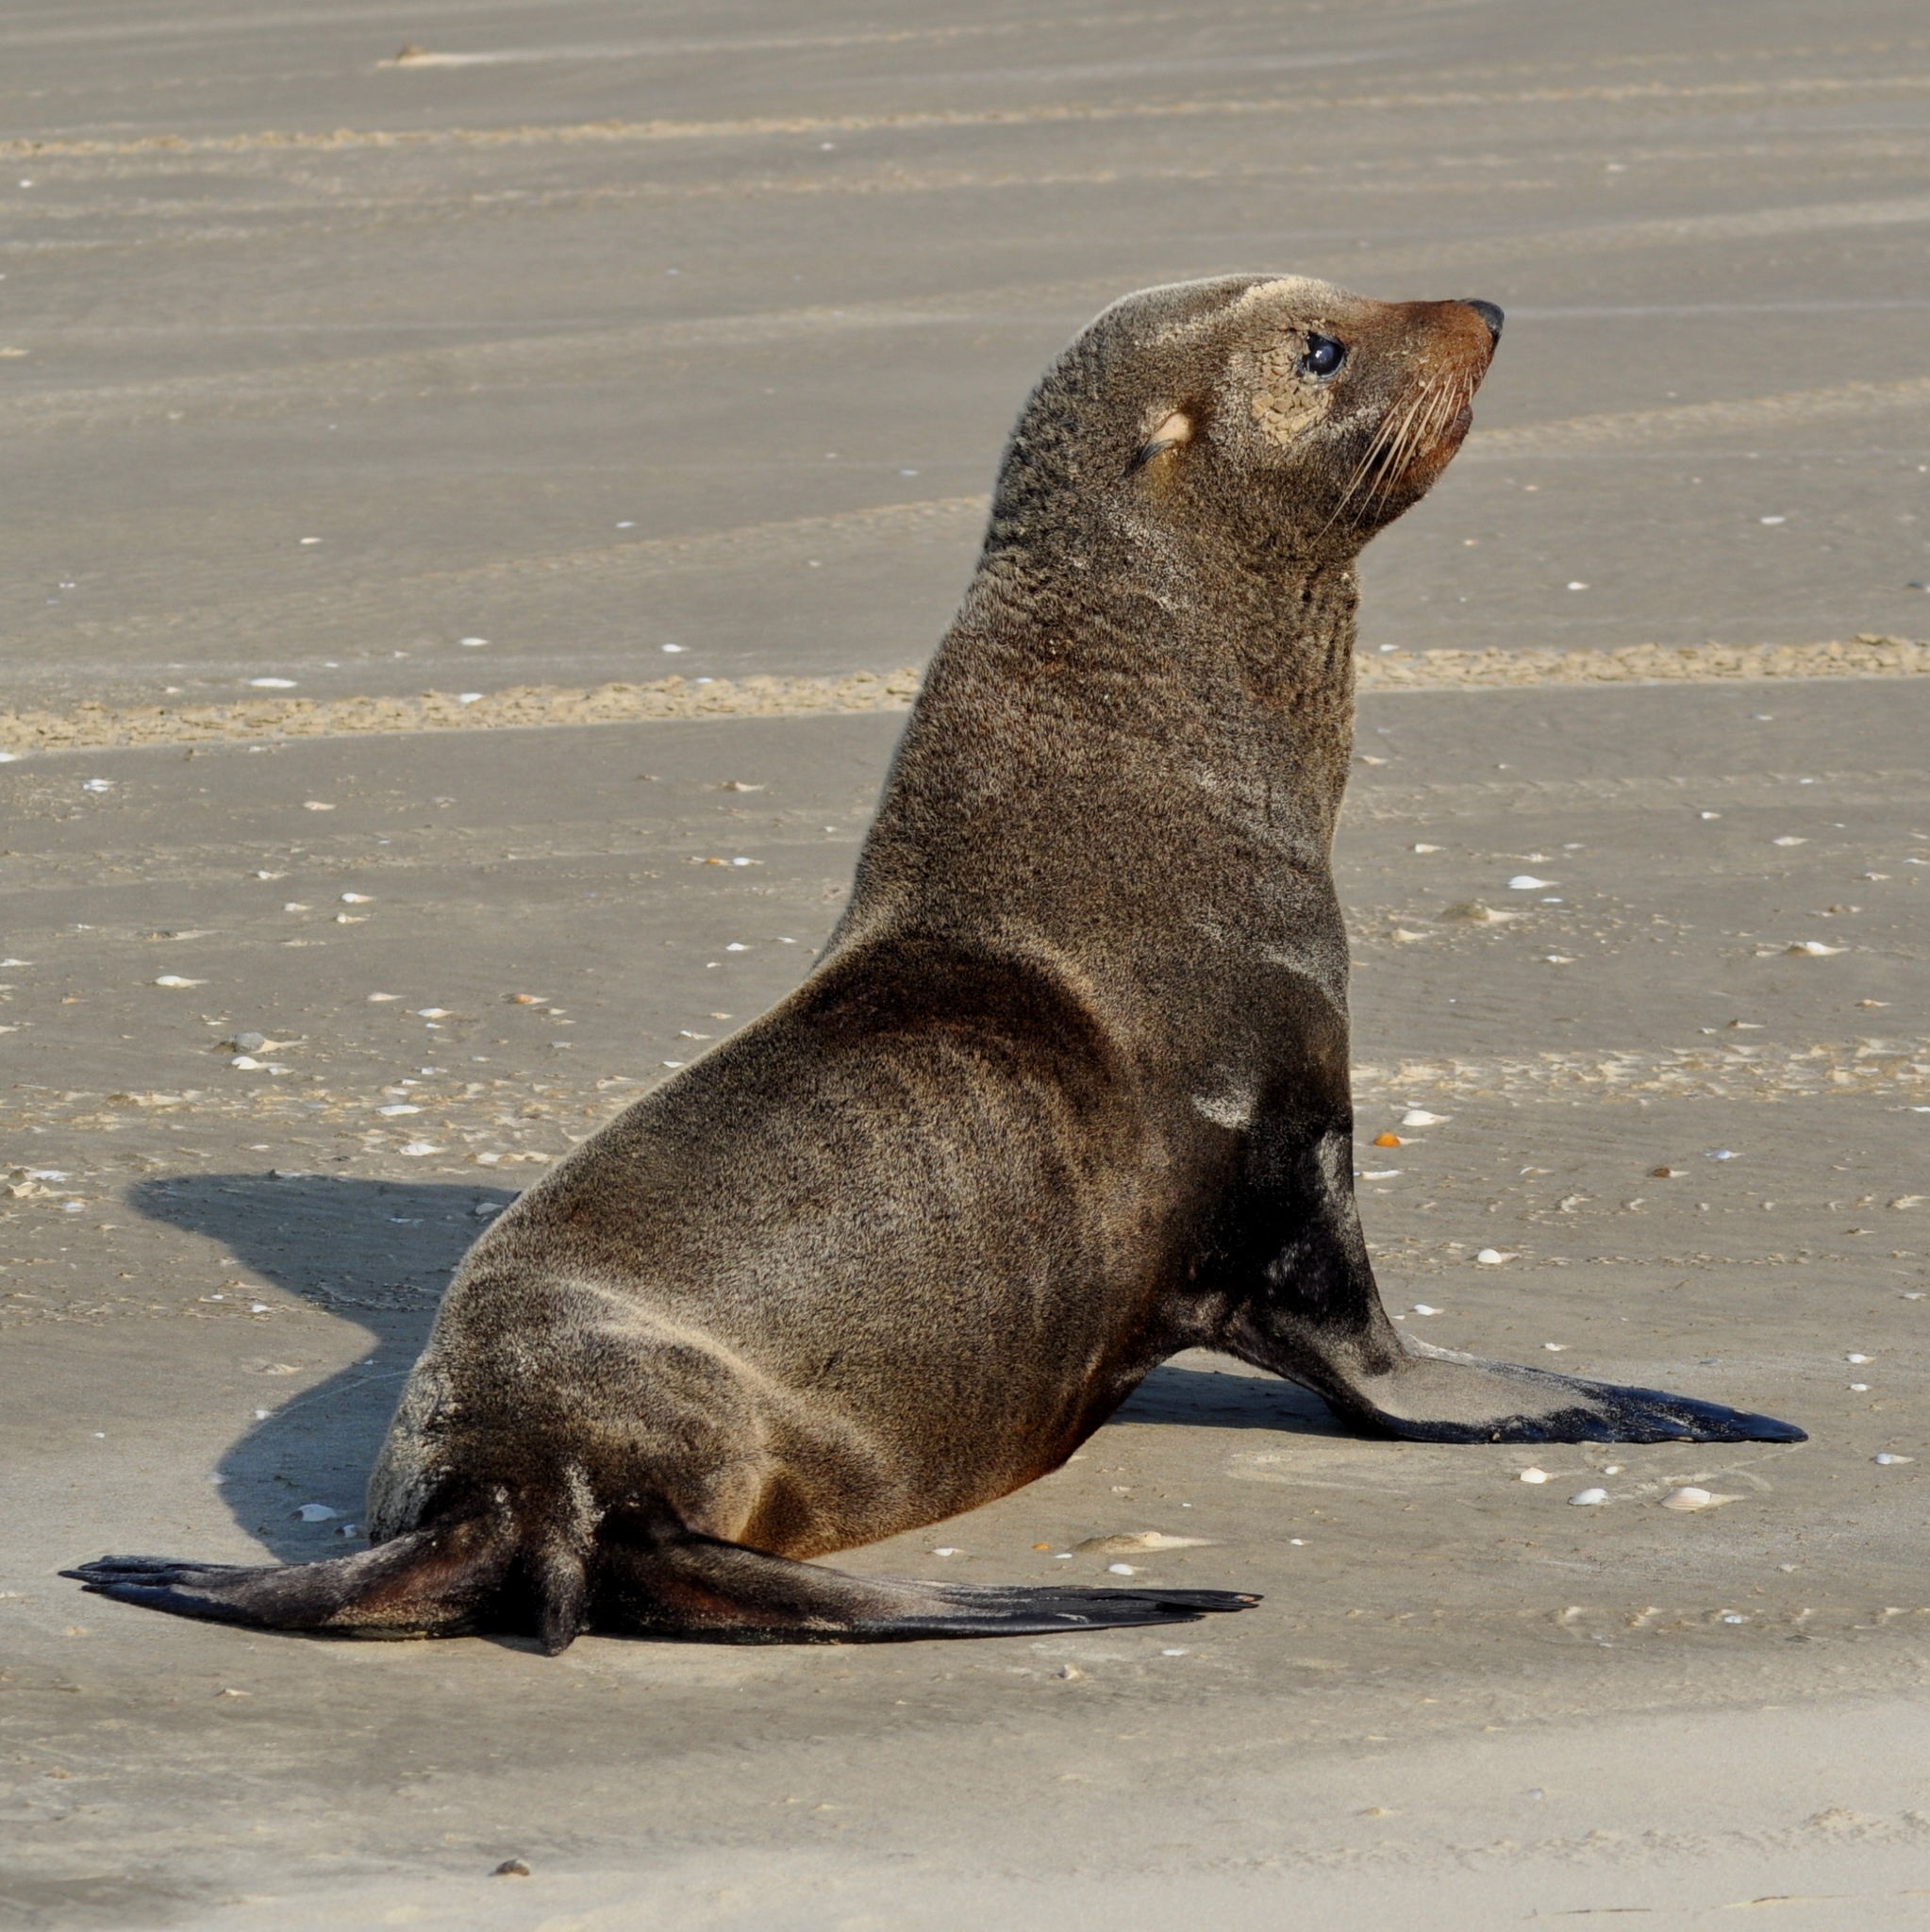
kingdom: Animalia
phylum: Chordata
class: Mammalia
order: Carnivora
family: Otariidae
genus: Arctocephalus
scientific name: Arctocephalus australis
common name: South american fur seal
